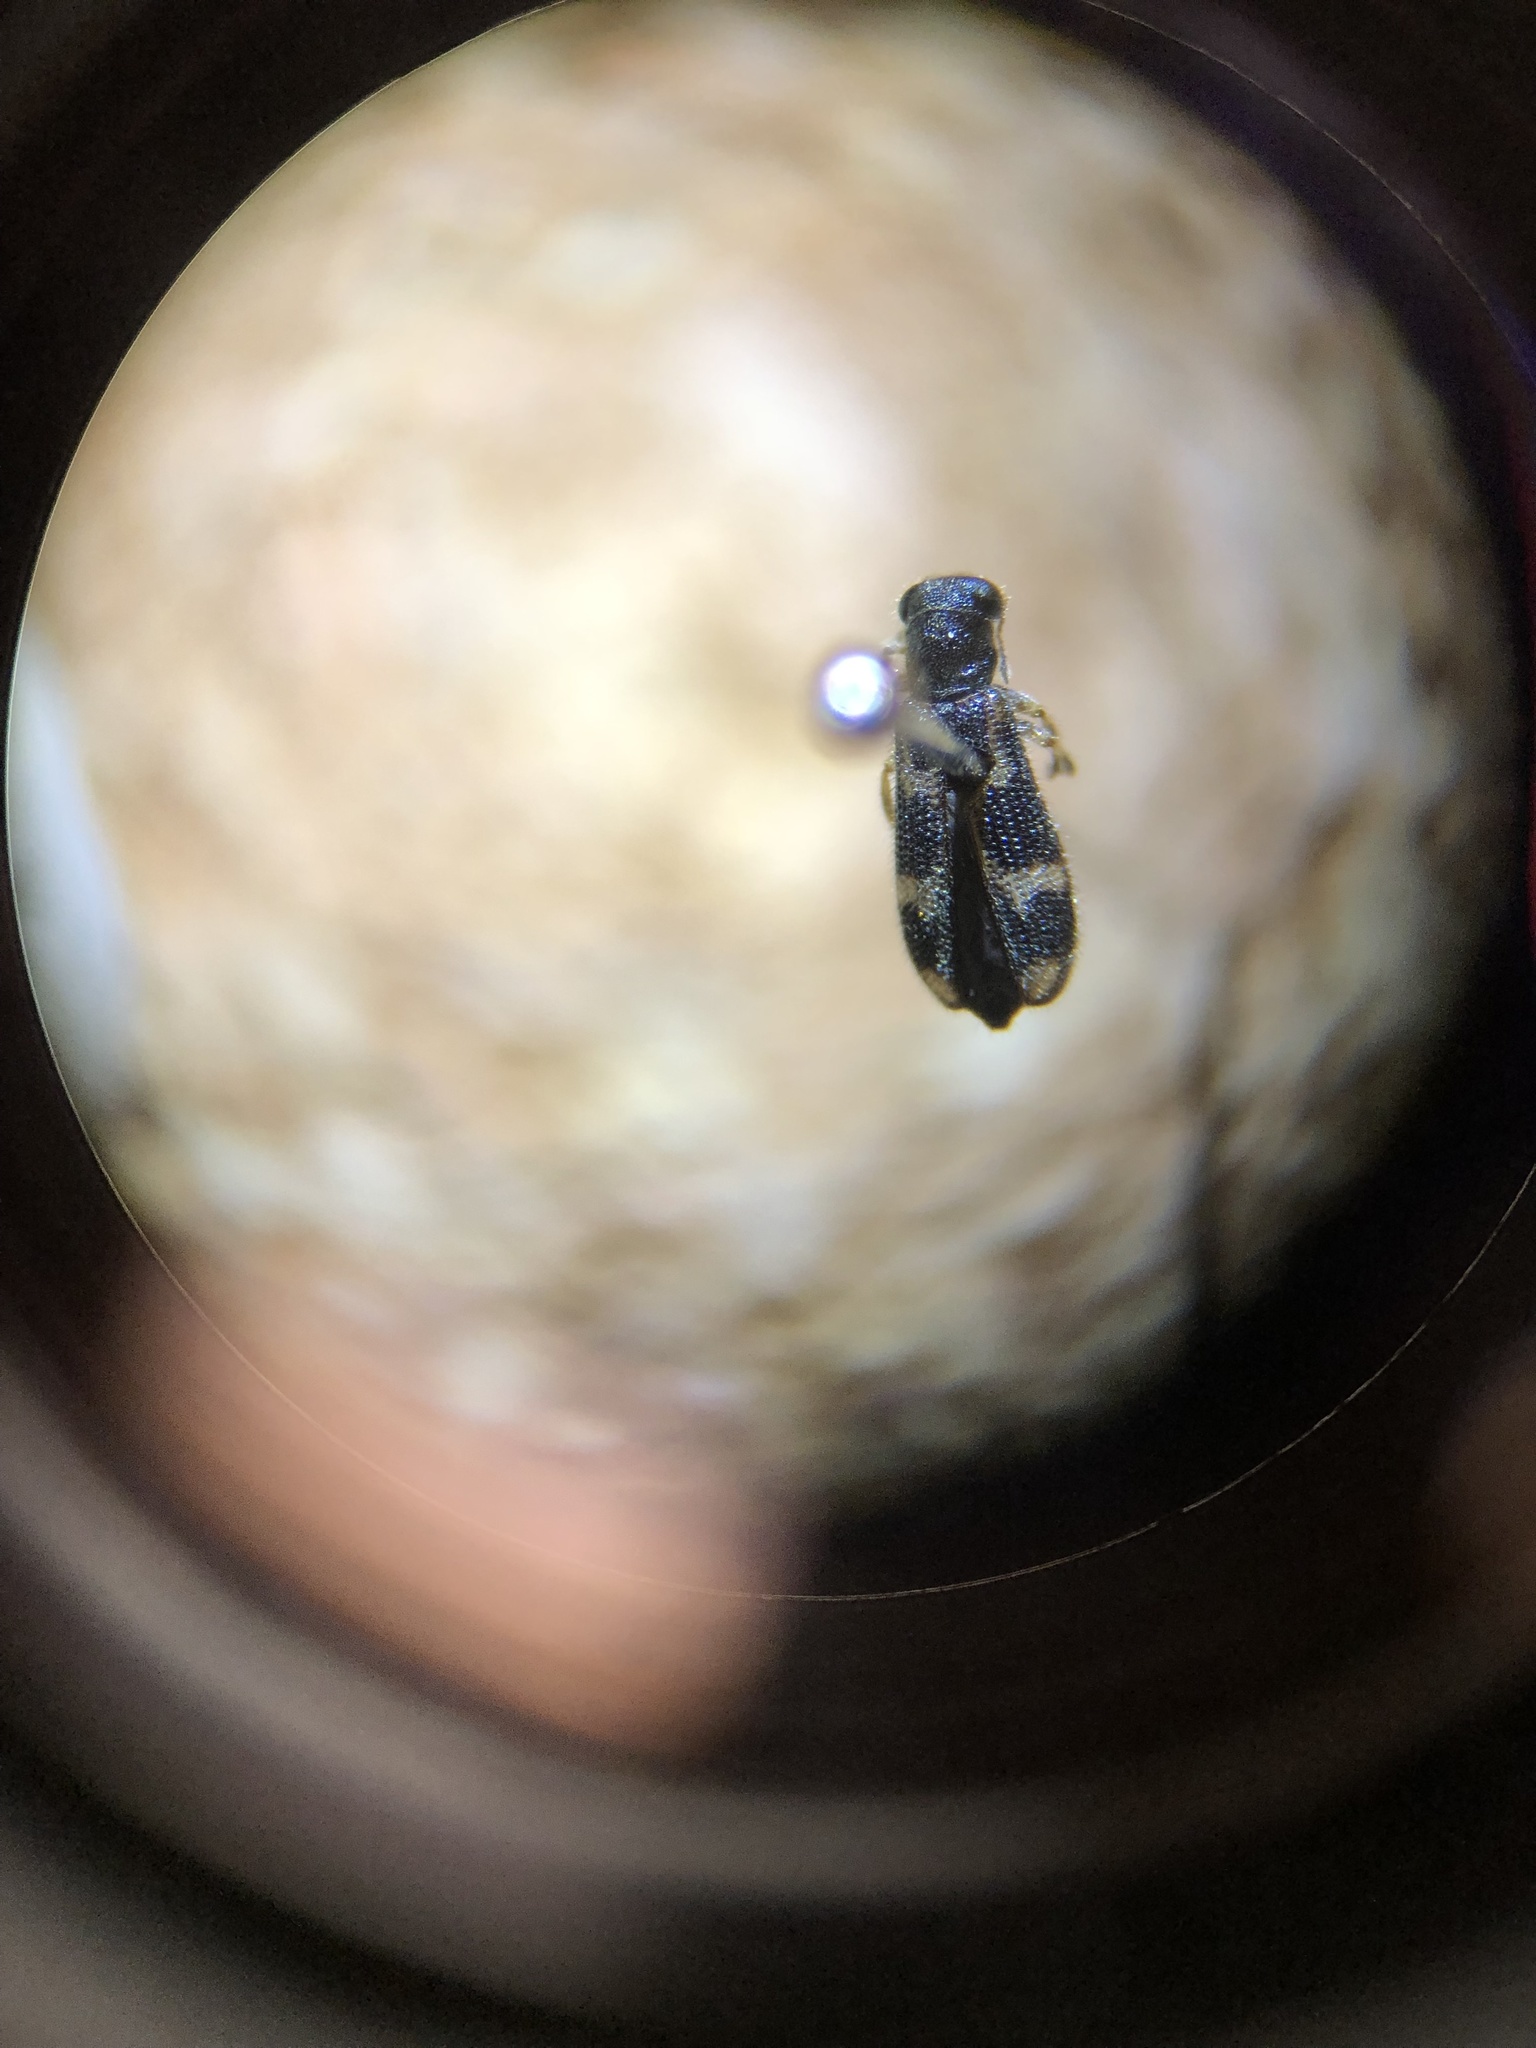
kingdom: Animalia
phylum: Arthropoda
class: Insecta
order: Coleoptera
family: Cleridae
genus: Madoniella
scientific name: Madoniella dislocata
